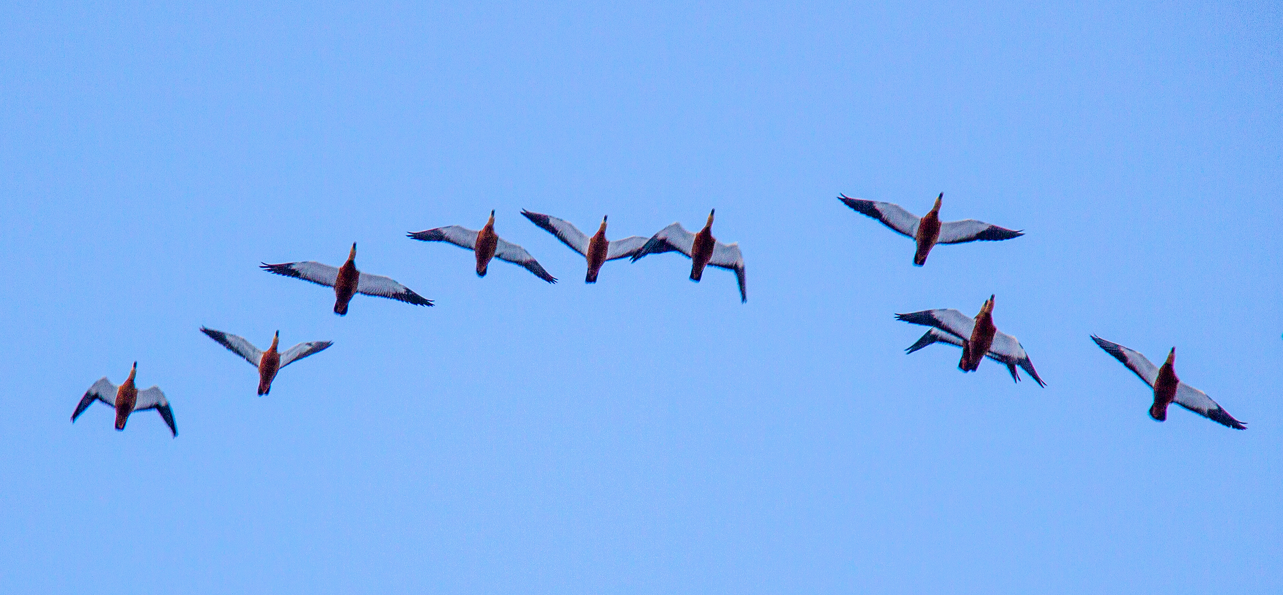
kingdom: Animalia
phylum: Chordata
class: Aves
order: Anseriformes
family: Anatidae
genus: Tadorna
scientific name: Tadorna ferruginea
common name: Ruddy shelduck
